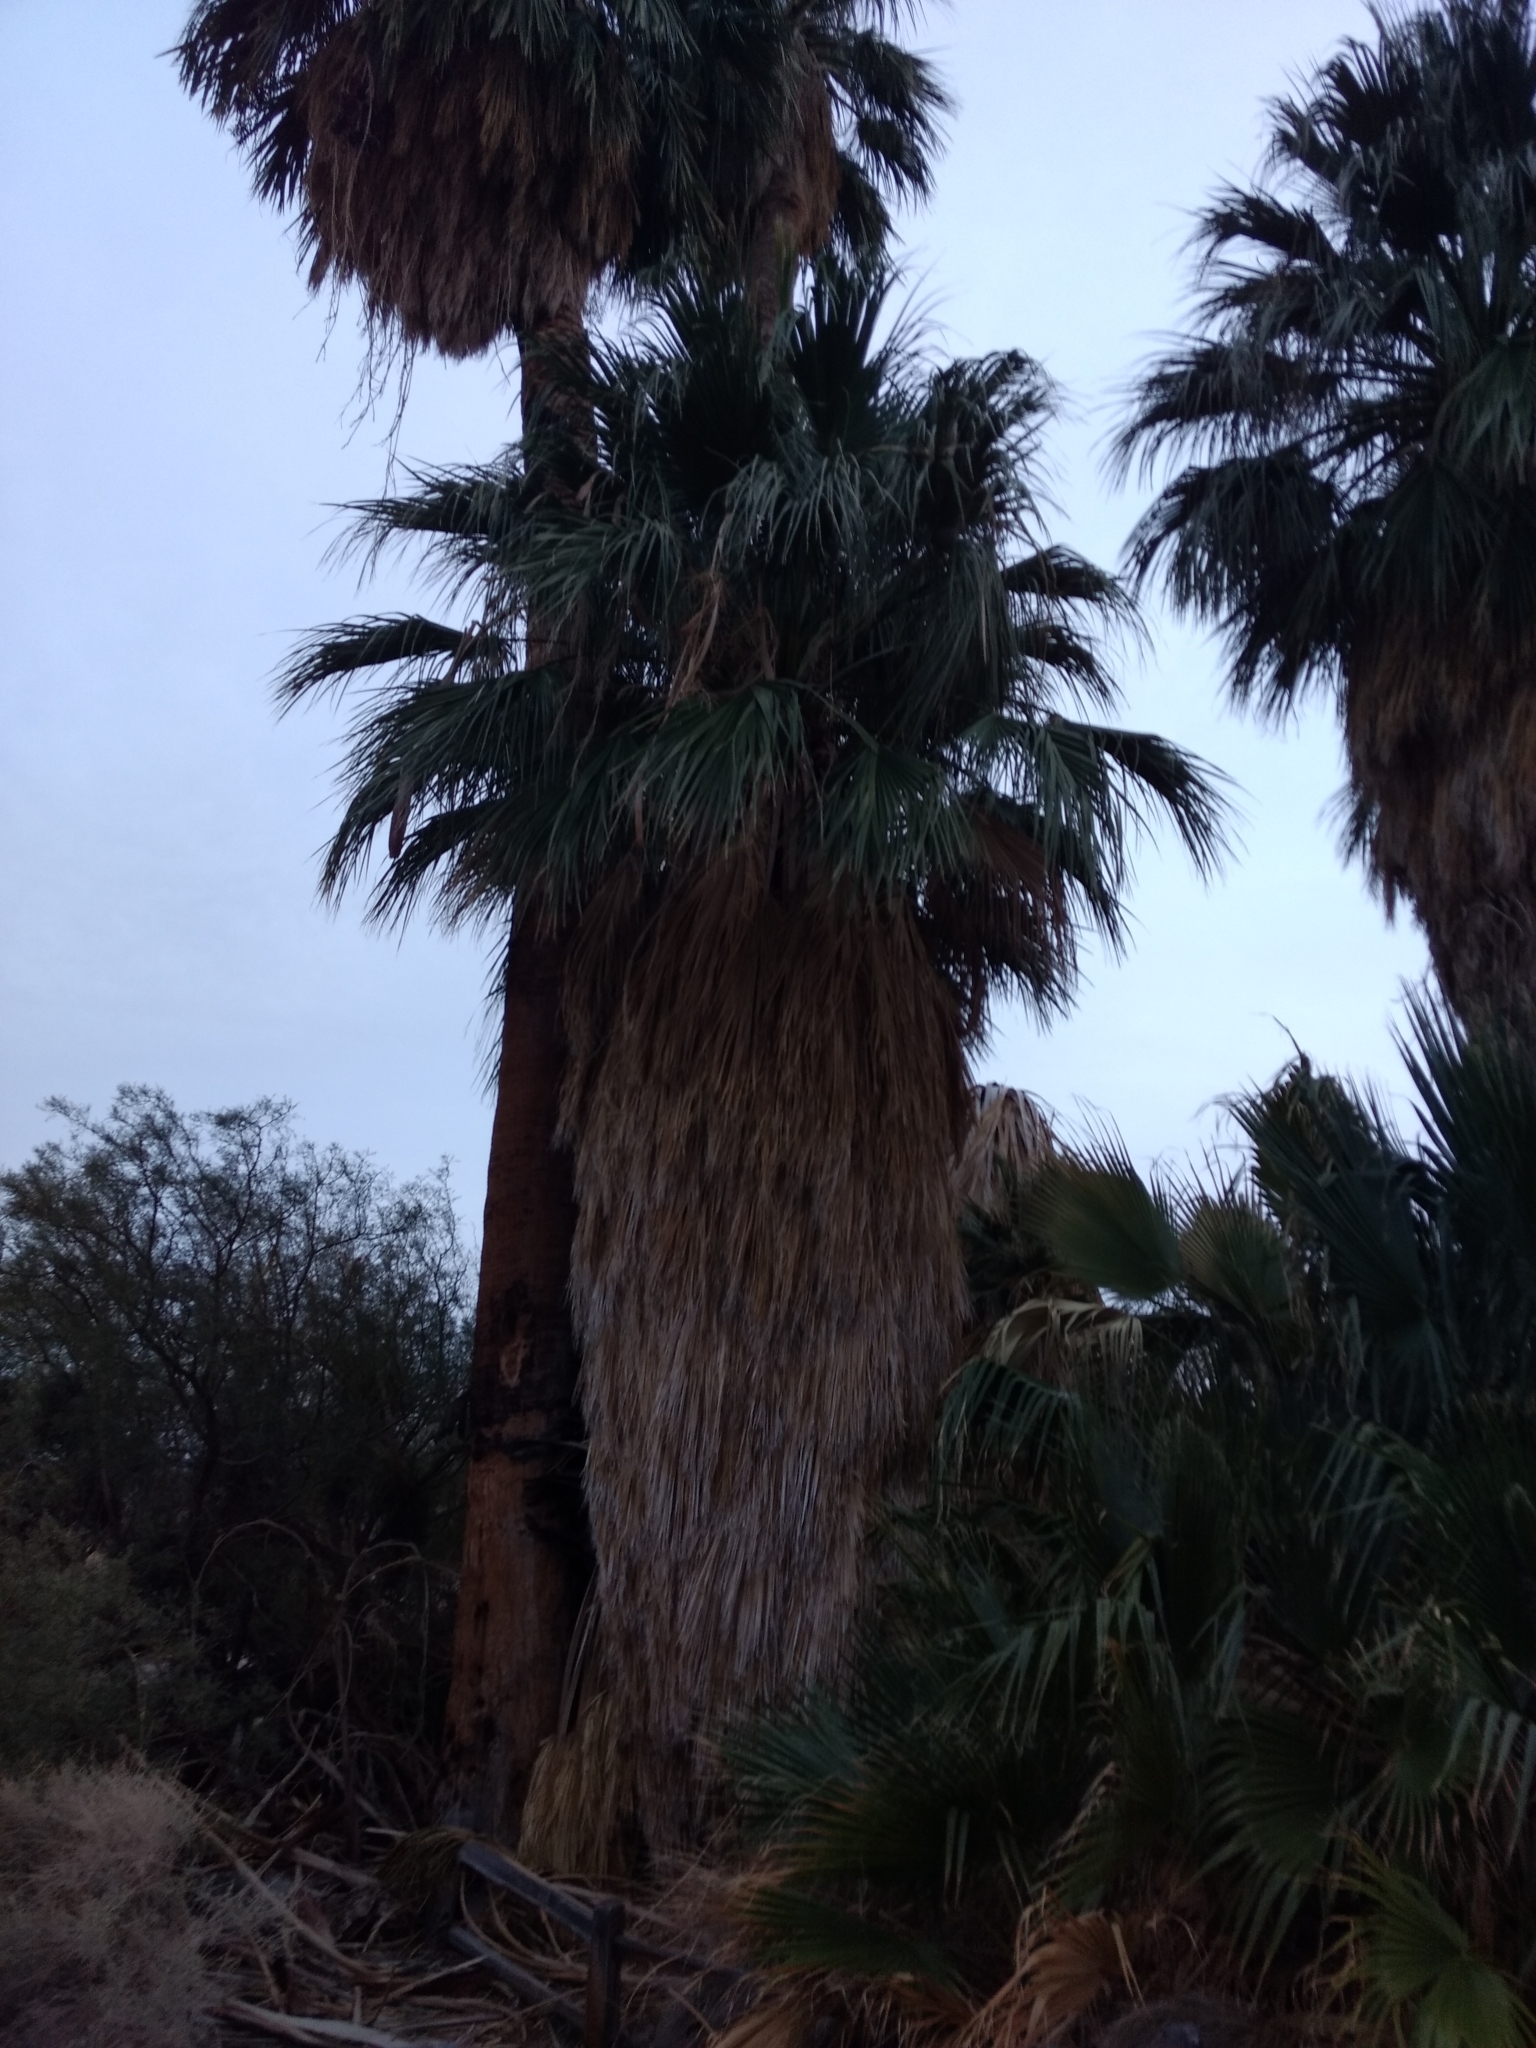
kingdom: Plantae
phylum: Tracheophyta
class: Liliopsida
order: Arecales
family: Arecaceae
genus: Washingtonia
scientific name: Washingtonia filifera
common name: California fan palm
